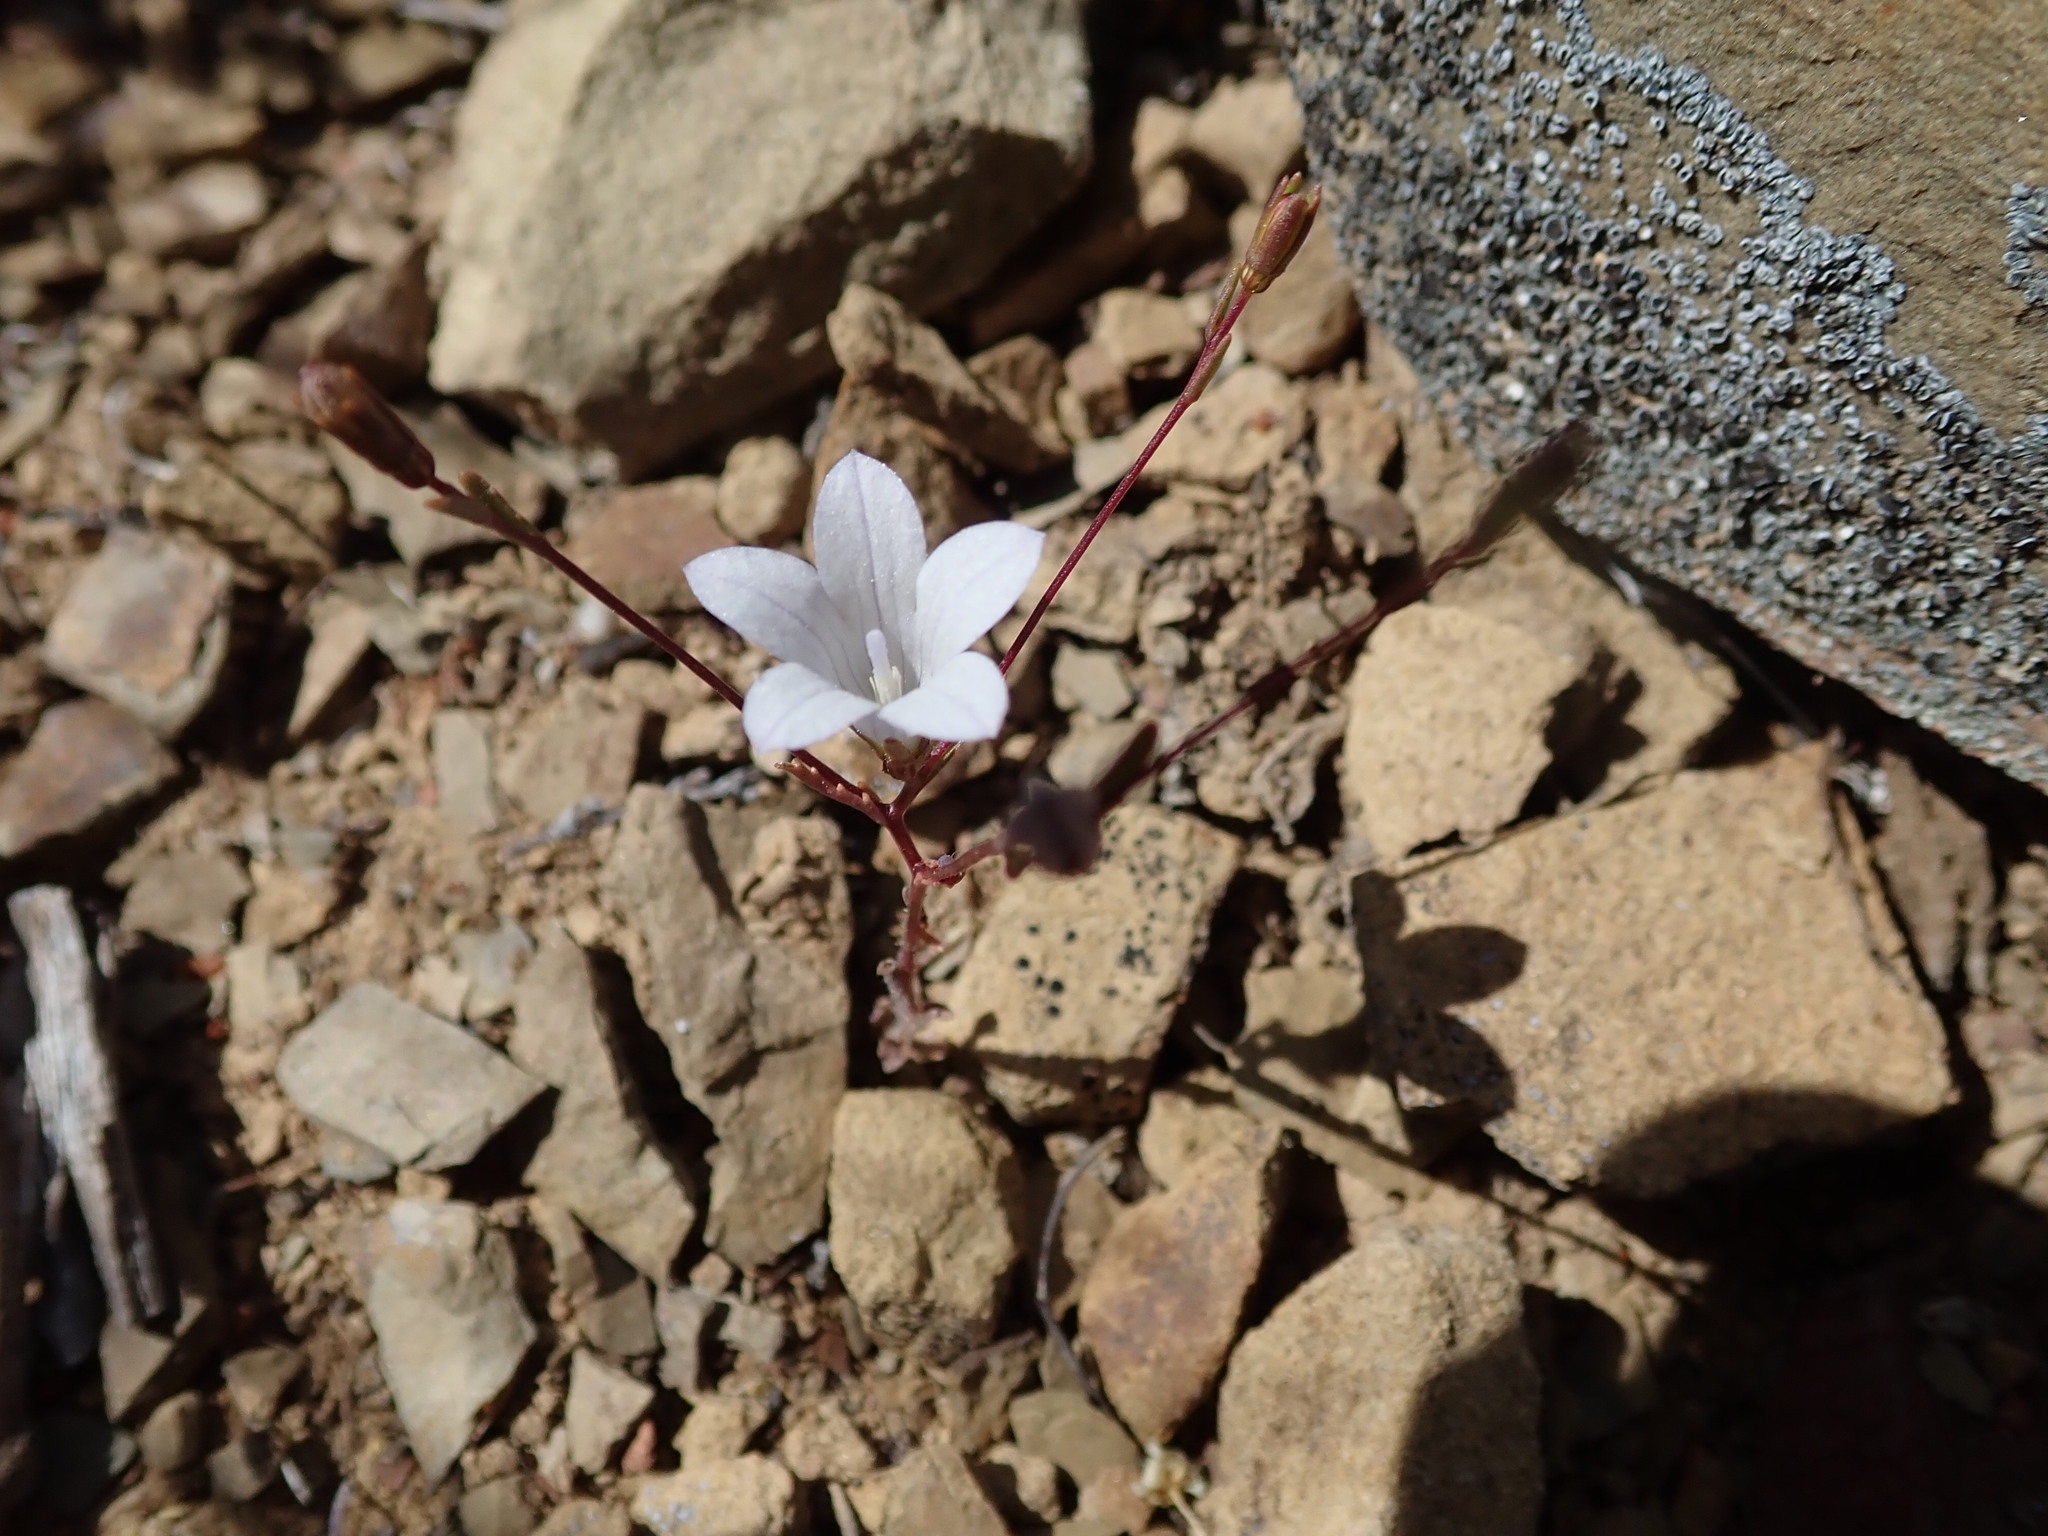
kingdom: Plantae
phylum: Tracheophyta
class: Magnoliopsida
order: Asterales
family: Campanulaceae
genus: Ravenella
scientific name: Ravenella exigua
